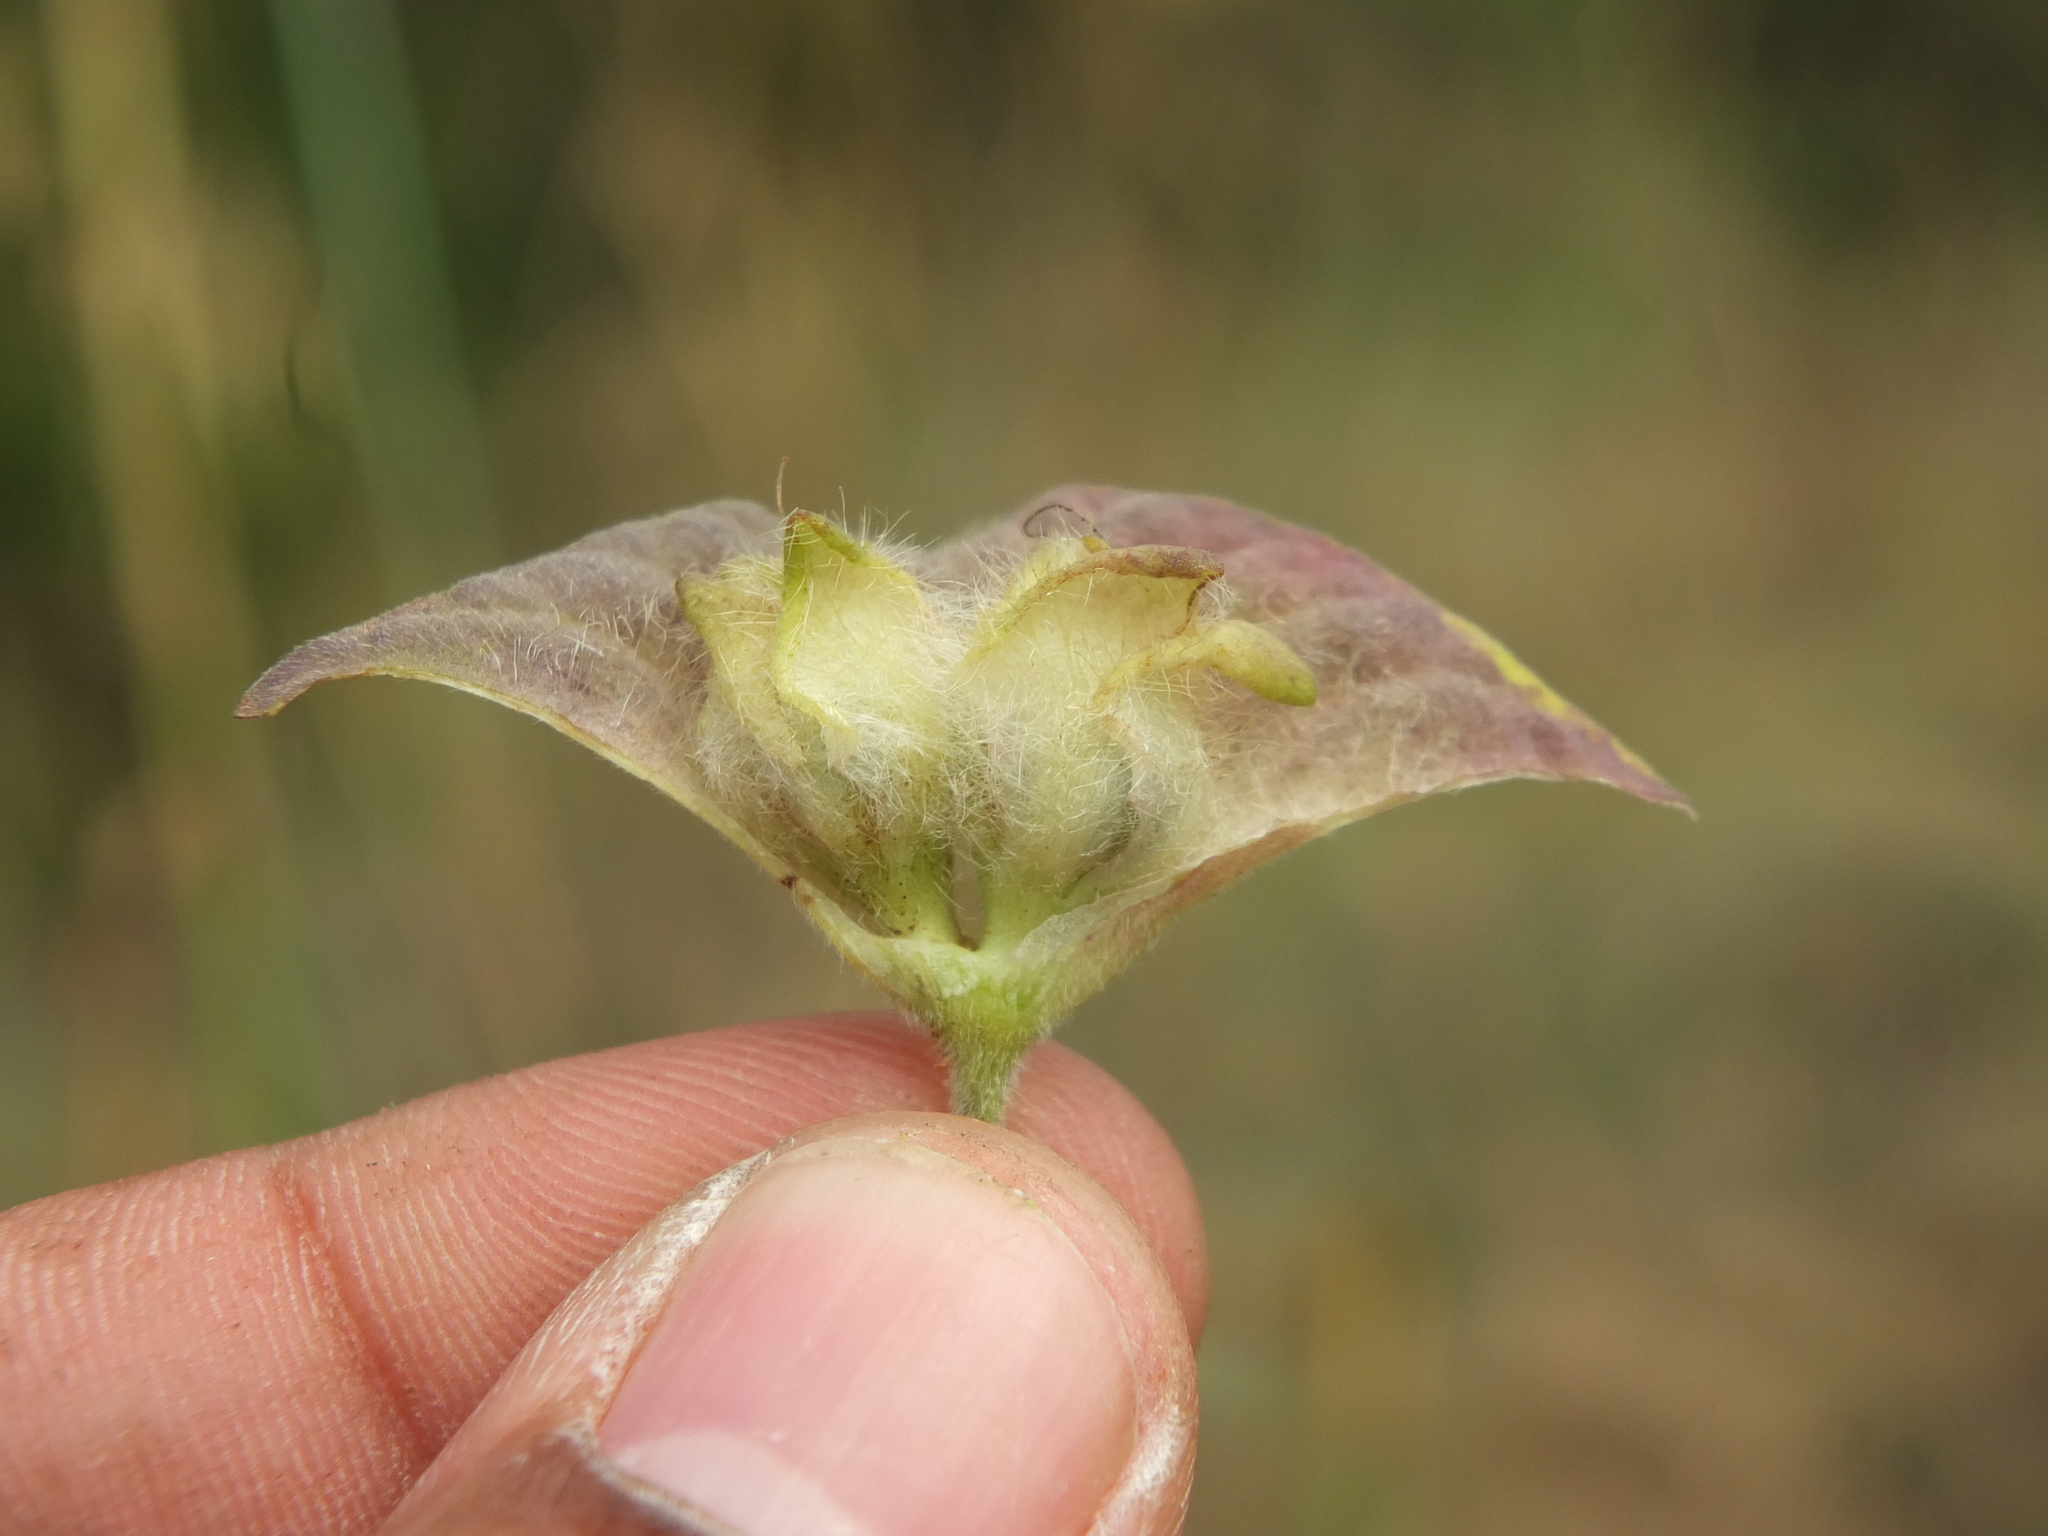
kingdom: Plantae
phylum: Tracheophyta
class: Magnoliopsida
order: Solanales
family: Convolvulaceae
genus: Ipomoea
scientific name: Ipomoea pileata
